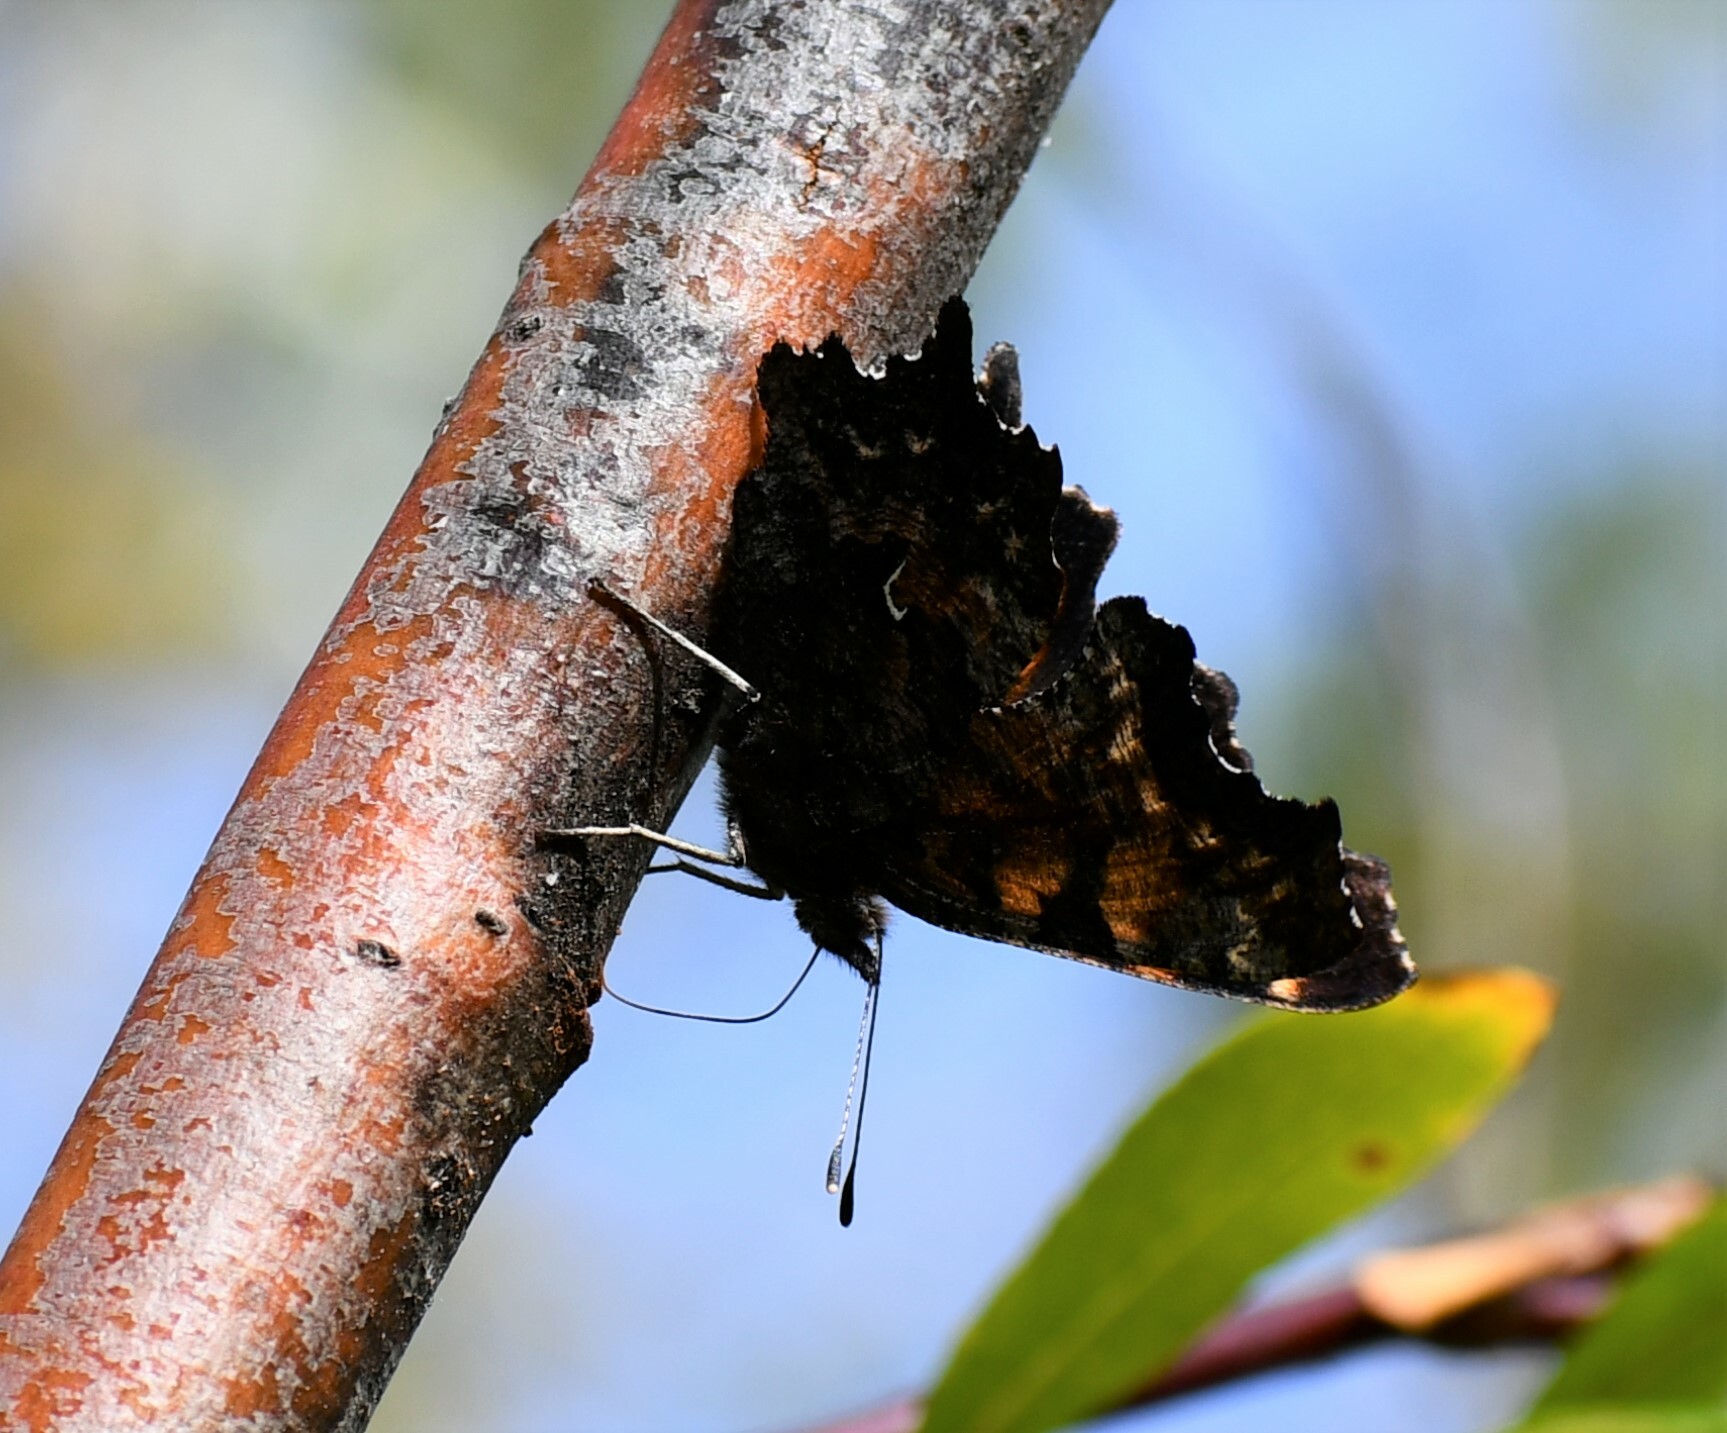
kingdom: Animalia
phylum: Arthropoda
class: Insecta
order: Lepidoptera
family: Nymphalidae
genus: Polygonia
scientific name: Polygonia faunus
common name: Green comma
